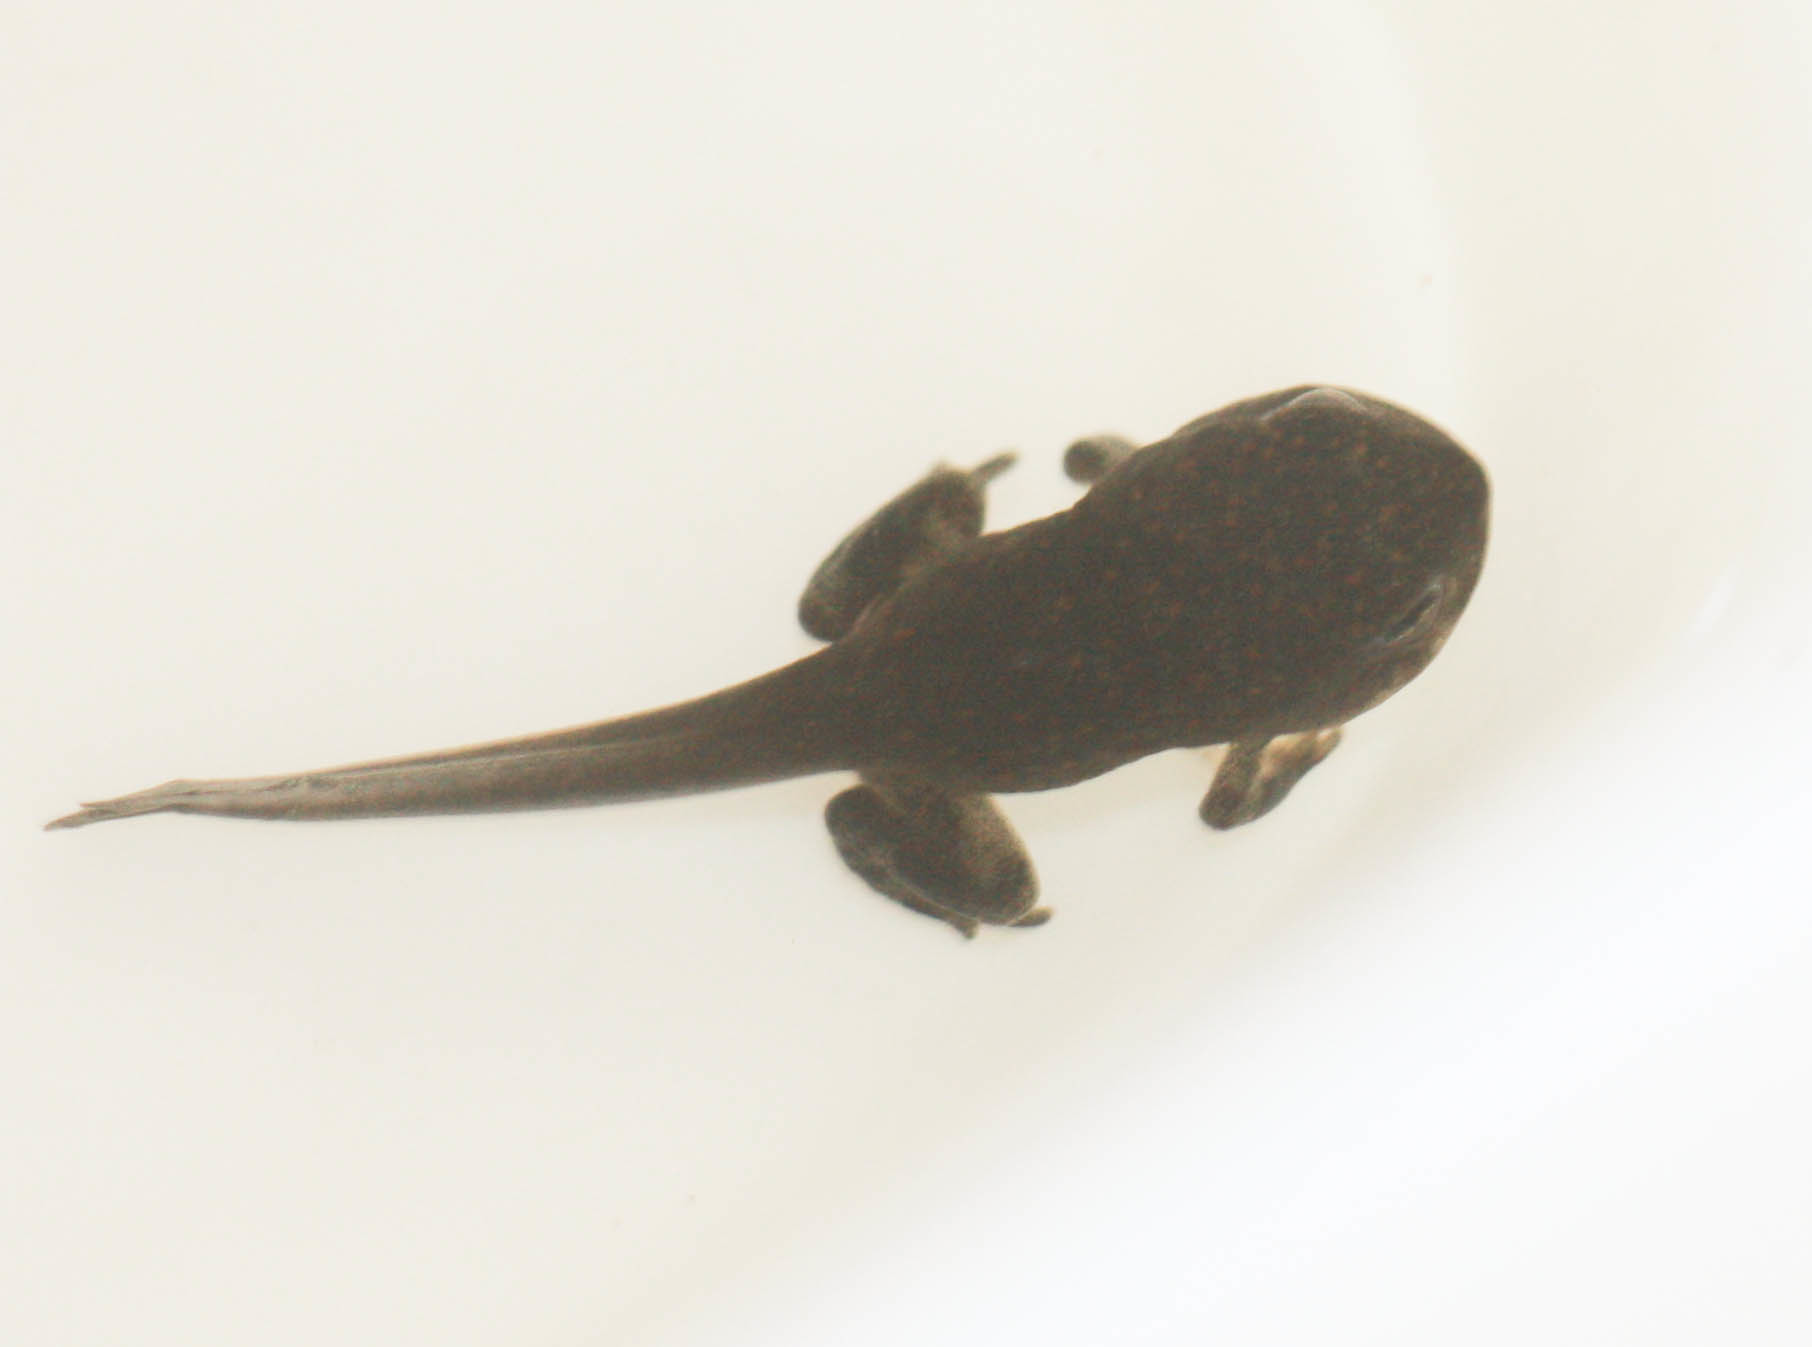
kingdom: Animalia
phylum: Chordata
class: Amphibia
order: Anura
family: Bufonidae
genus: Anaxyrus
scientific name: Anaxyrus punctatus
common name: Red-spotted toad
